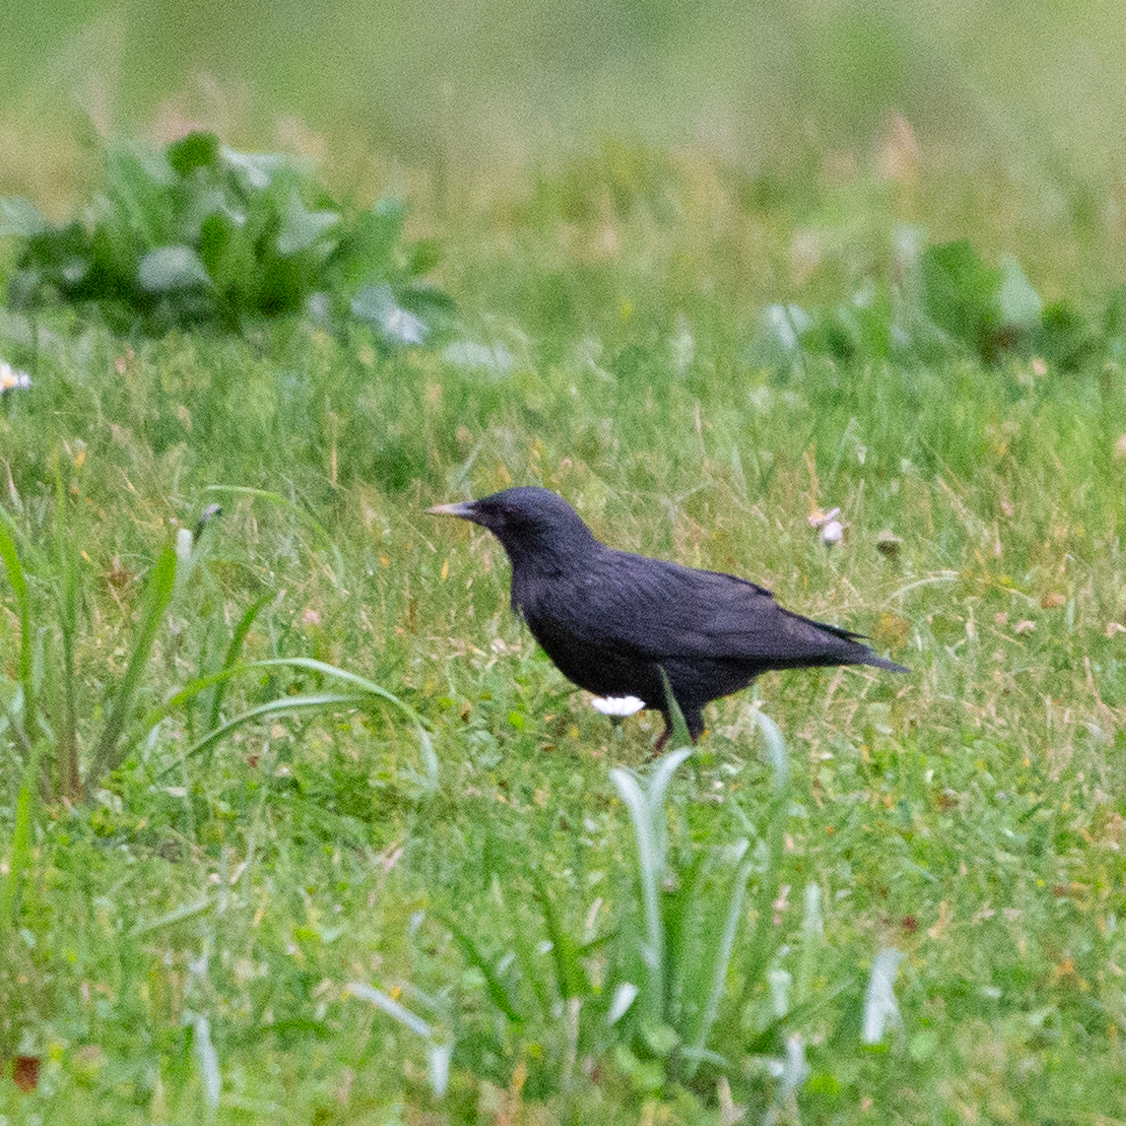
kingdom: Animalia
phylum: Chordata
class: Aves
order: Passeriformes
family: Sturnidae
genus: Sturnus
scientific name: Sturnus unicolor
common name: Spotless starling
